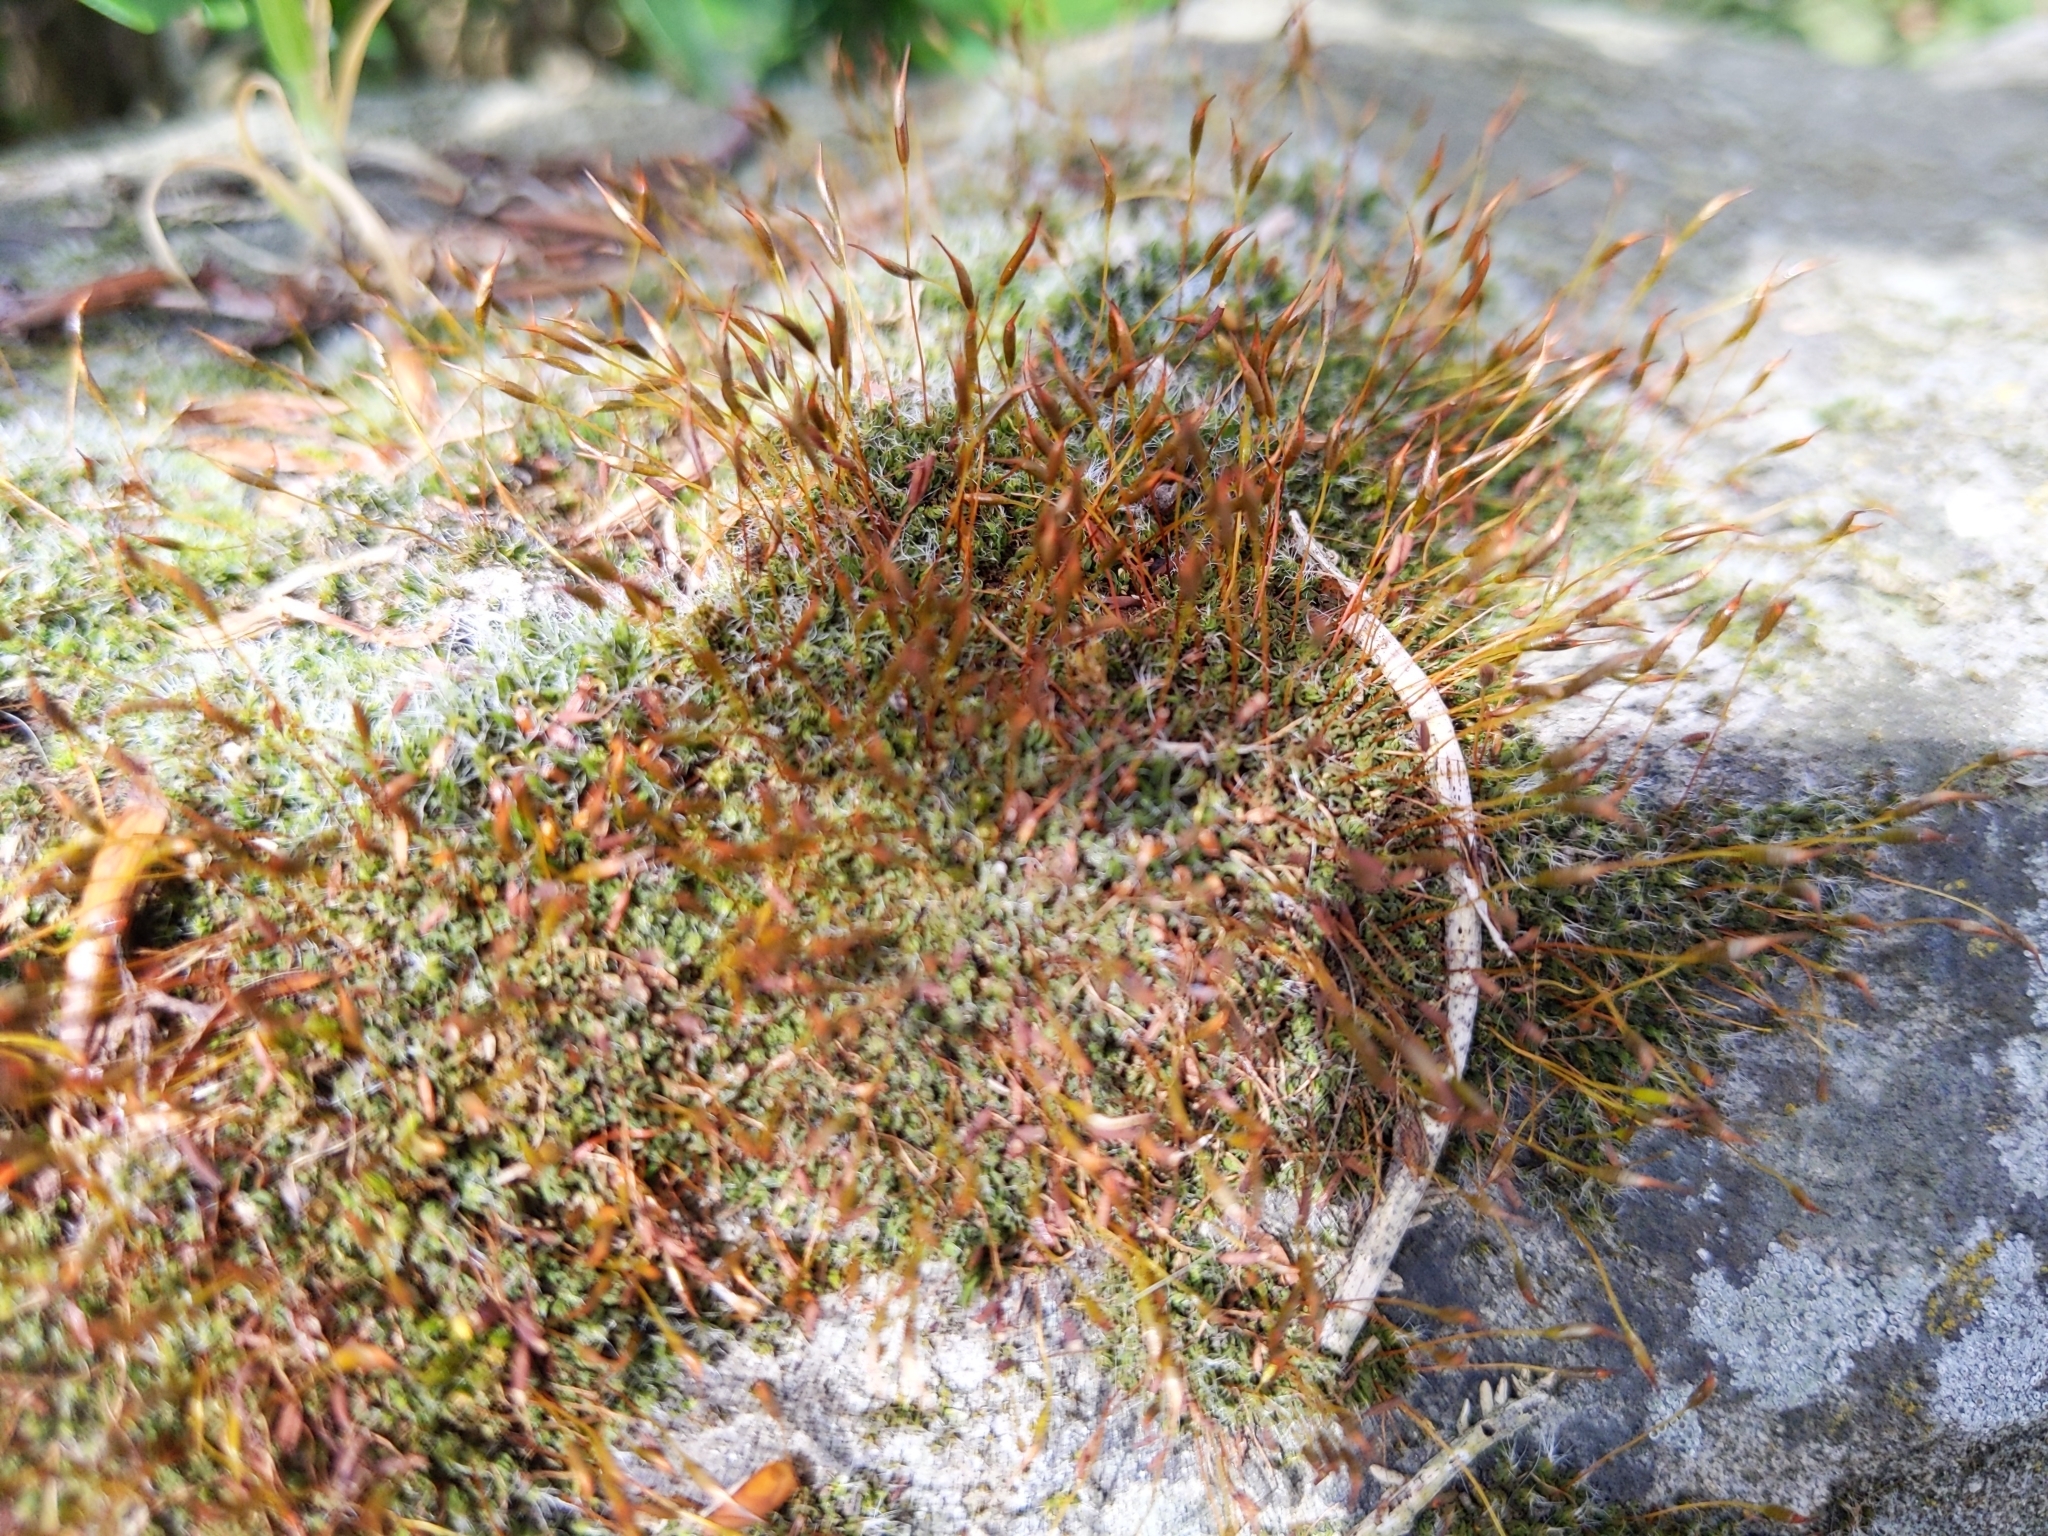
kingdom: Plantae
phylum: Bryophyta
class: Bryopsida
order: Pottiales
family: Pottiaceae
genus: Tortula
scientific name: Tortula muralis
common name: Wall screw-moss
